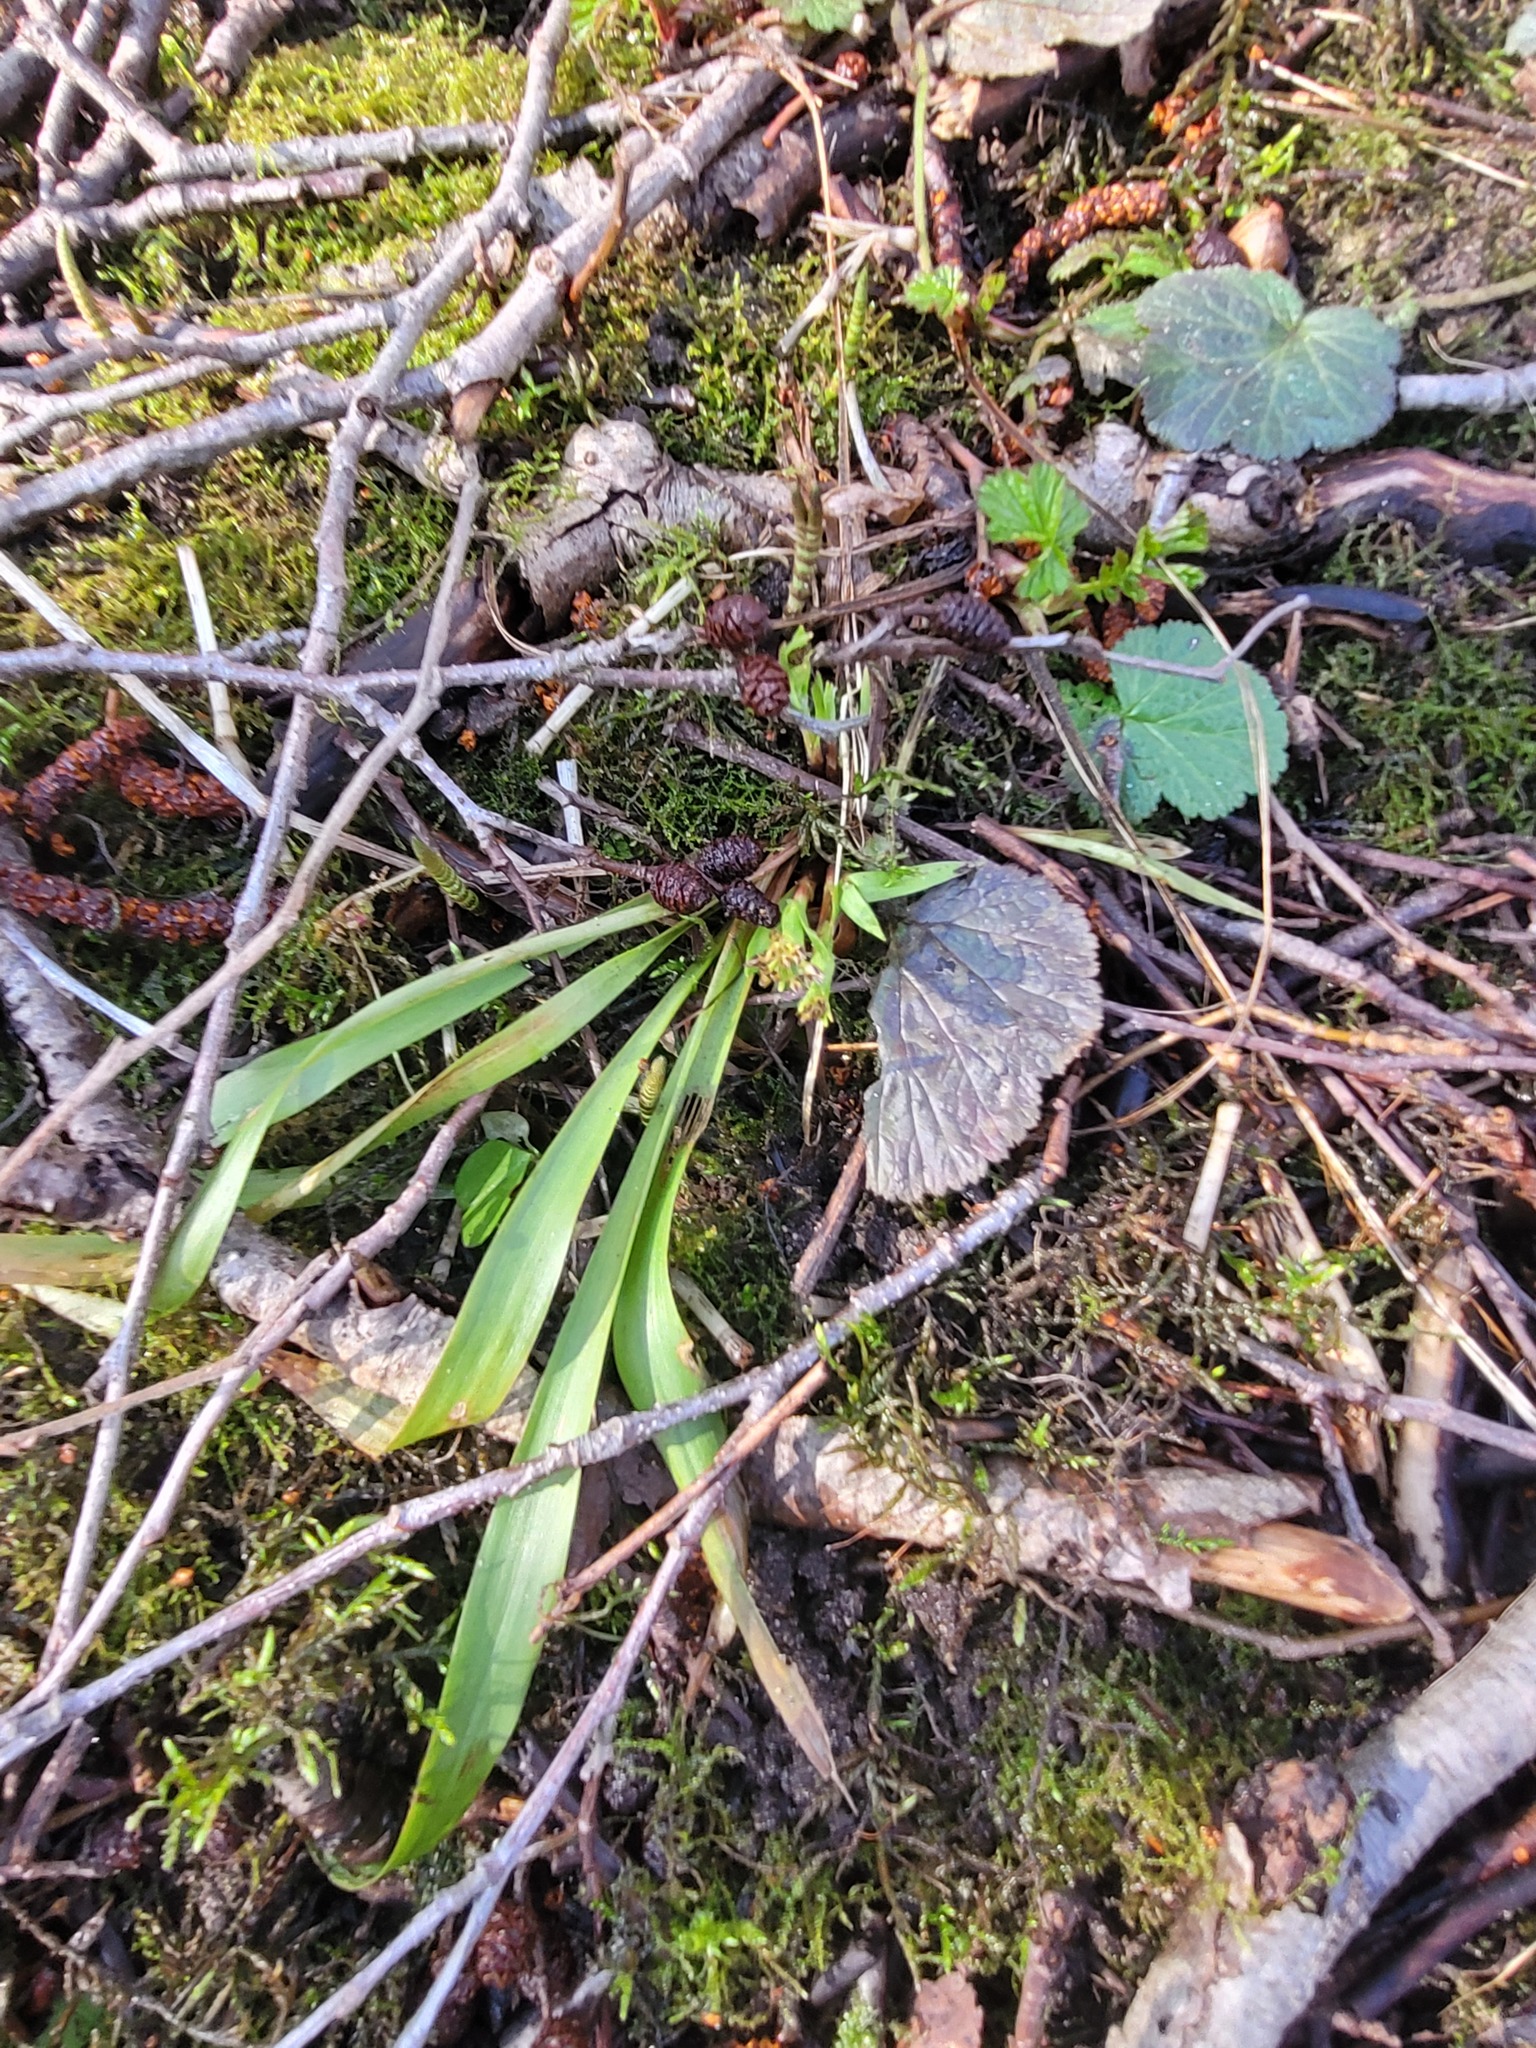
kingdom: Plantae
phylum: Tracheophyta
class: Liliopsida
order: Poales
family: Juncaceae
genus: Luzula
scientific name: Luzula pilosa
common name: Hairy wood-rush
